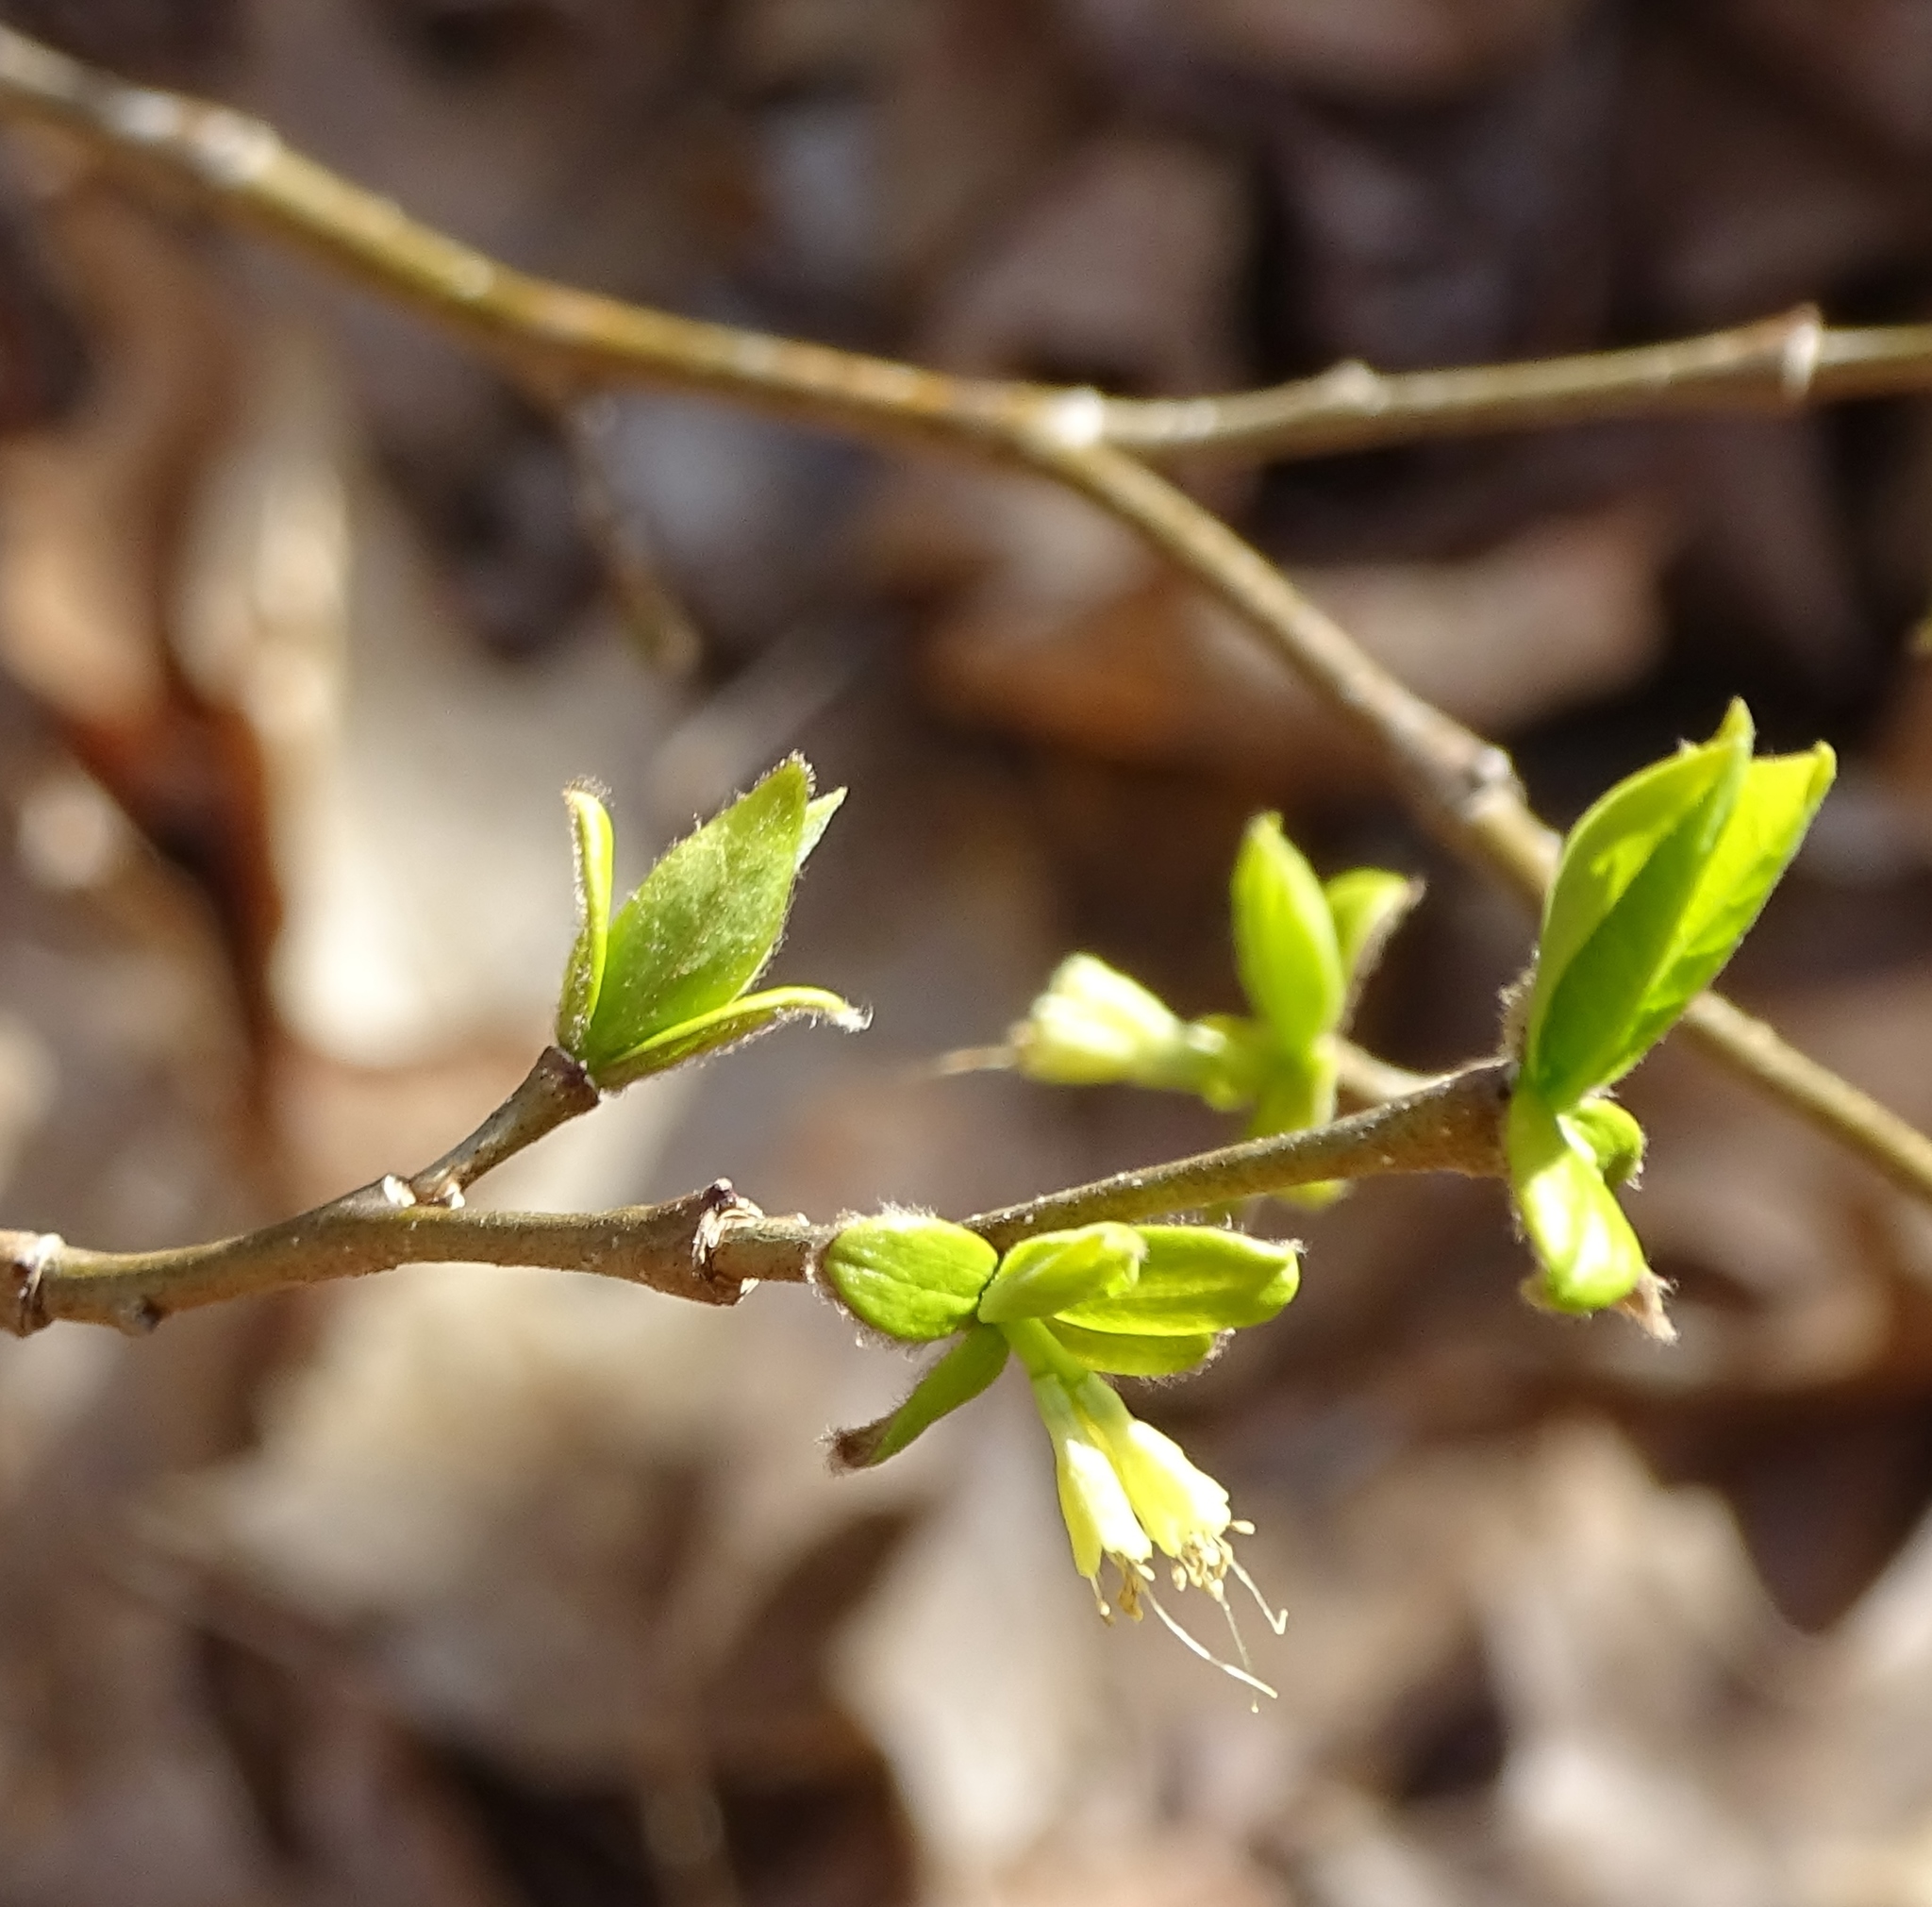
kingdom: Plantae
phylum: Tracheophyta
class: Magnoliopsida
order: Malvales
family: Thymelaeaceae
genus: Dirca
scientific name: Dirca palustris
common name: Leatherwood
